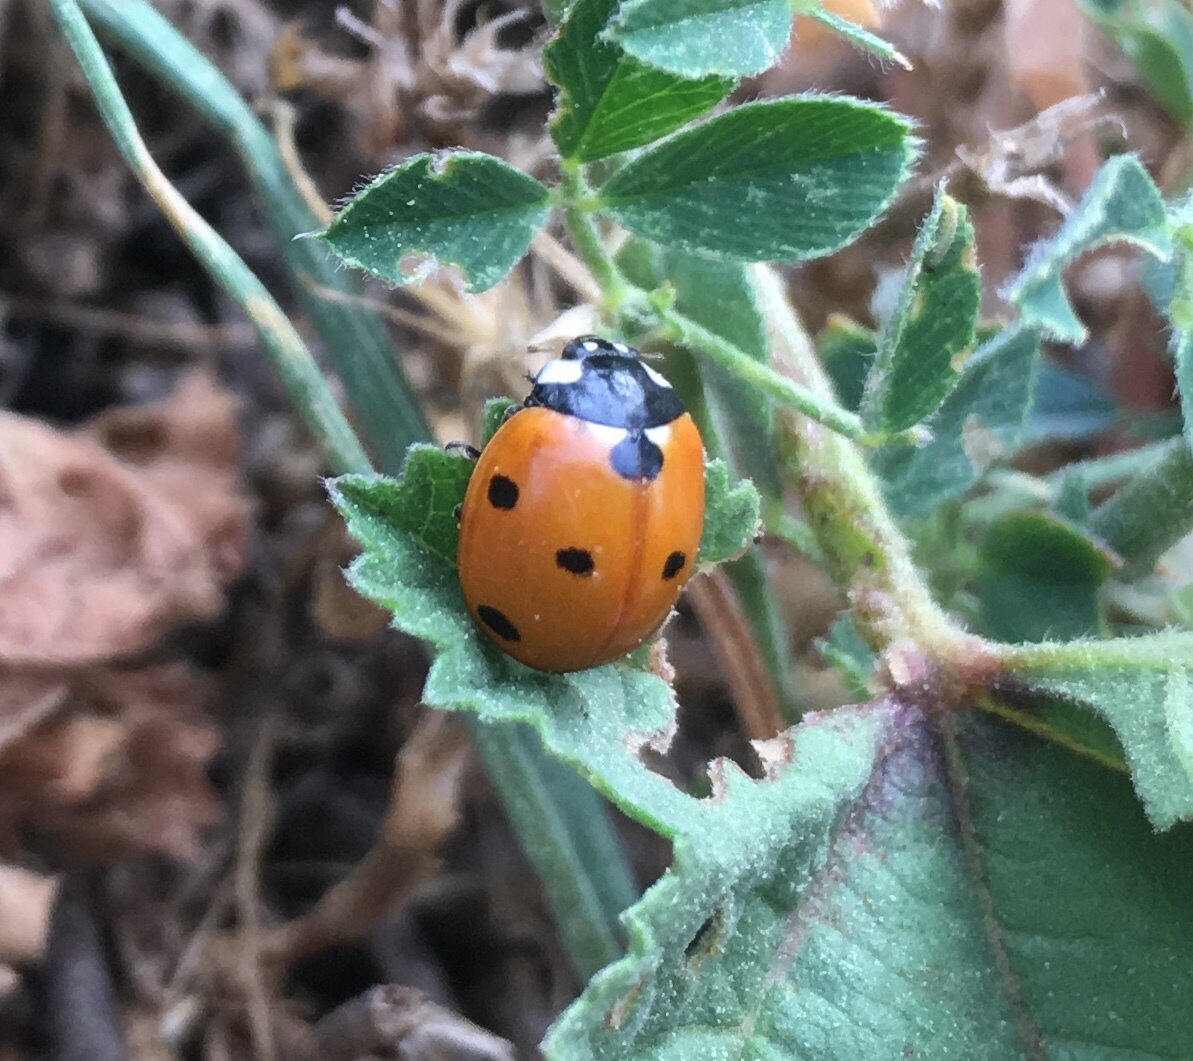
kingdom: Animalia
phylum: Arthropoda
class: Insecta
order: Coleoptera
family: Coccinellidae
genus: Coccinella
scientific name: Coccinella septempunctata
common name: Sevenspotted lady beetle
